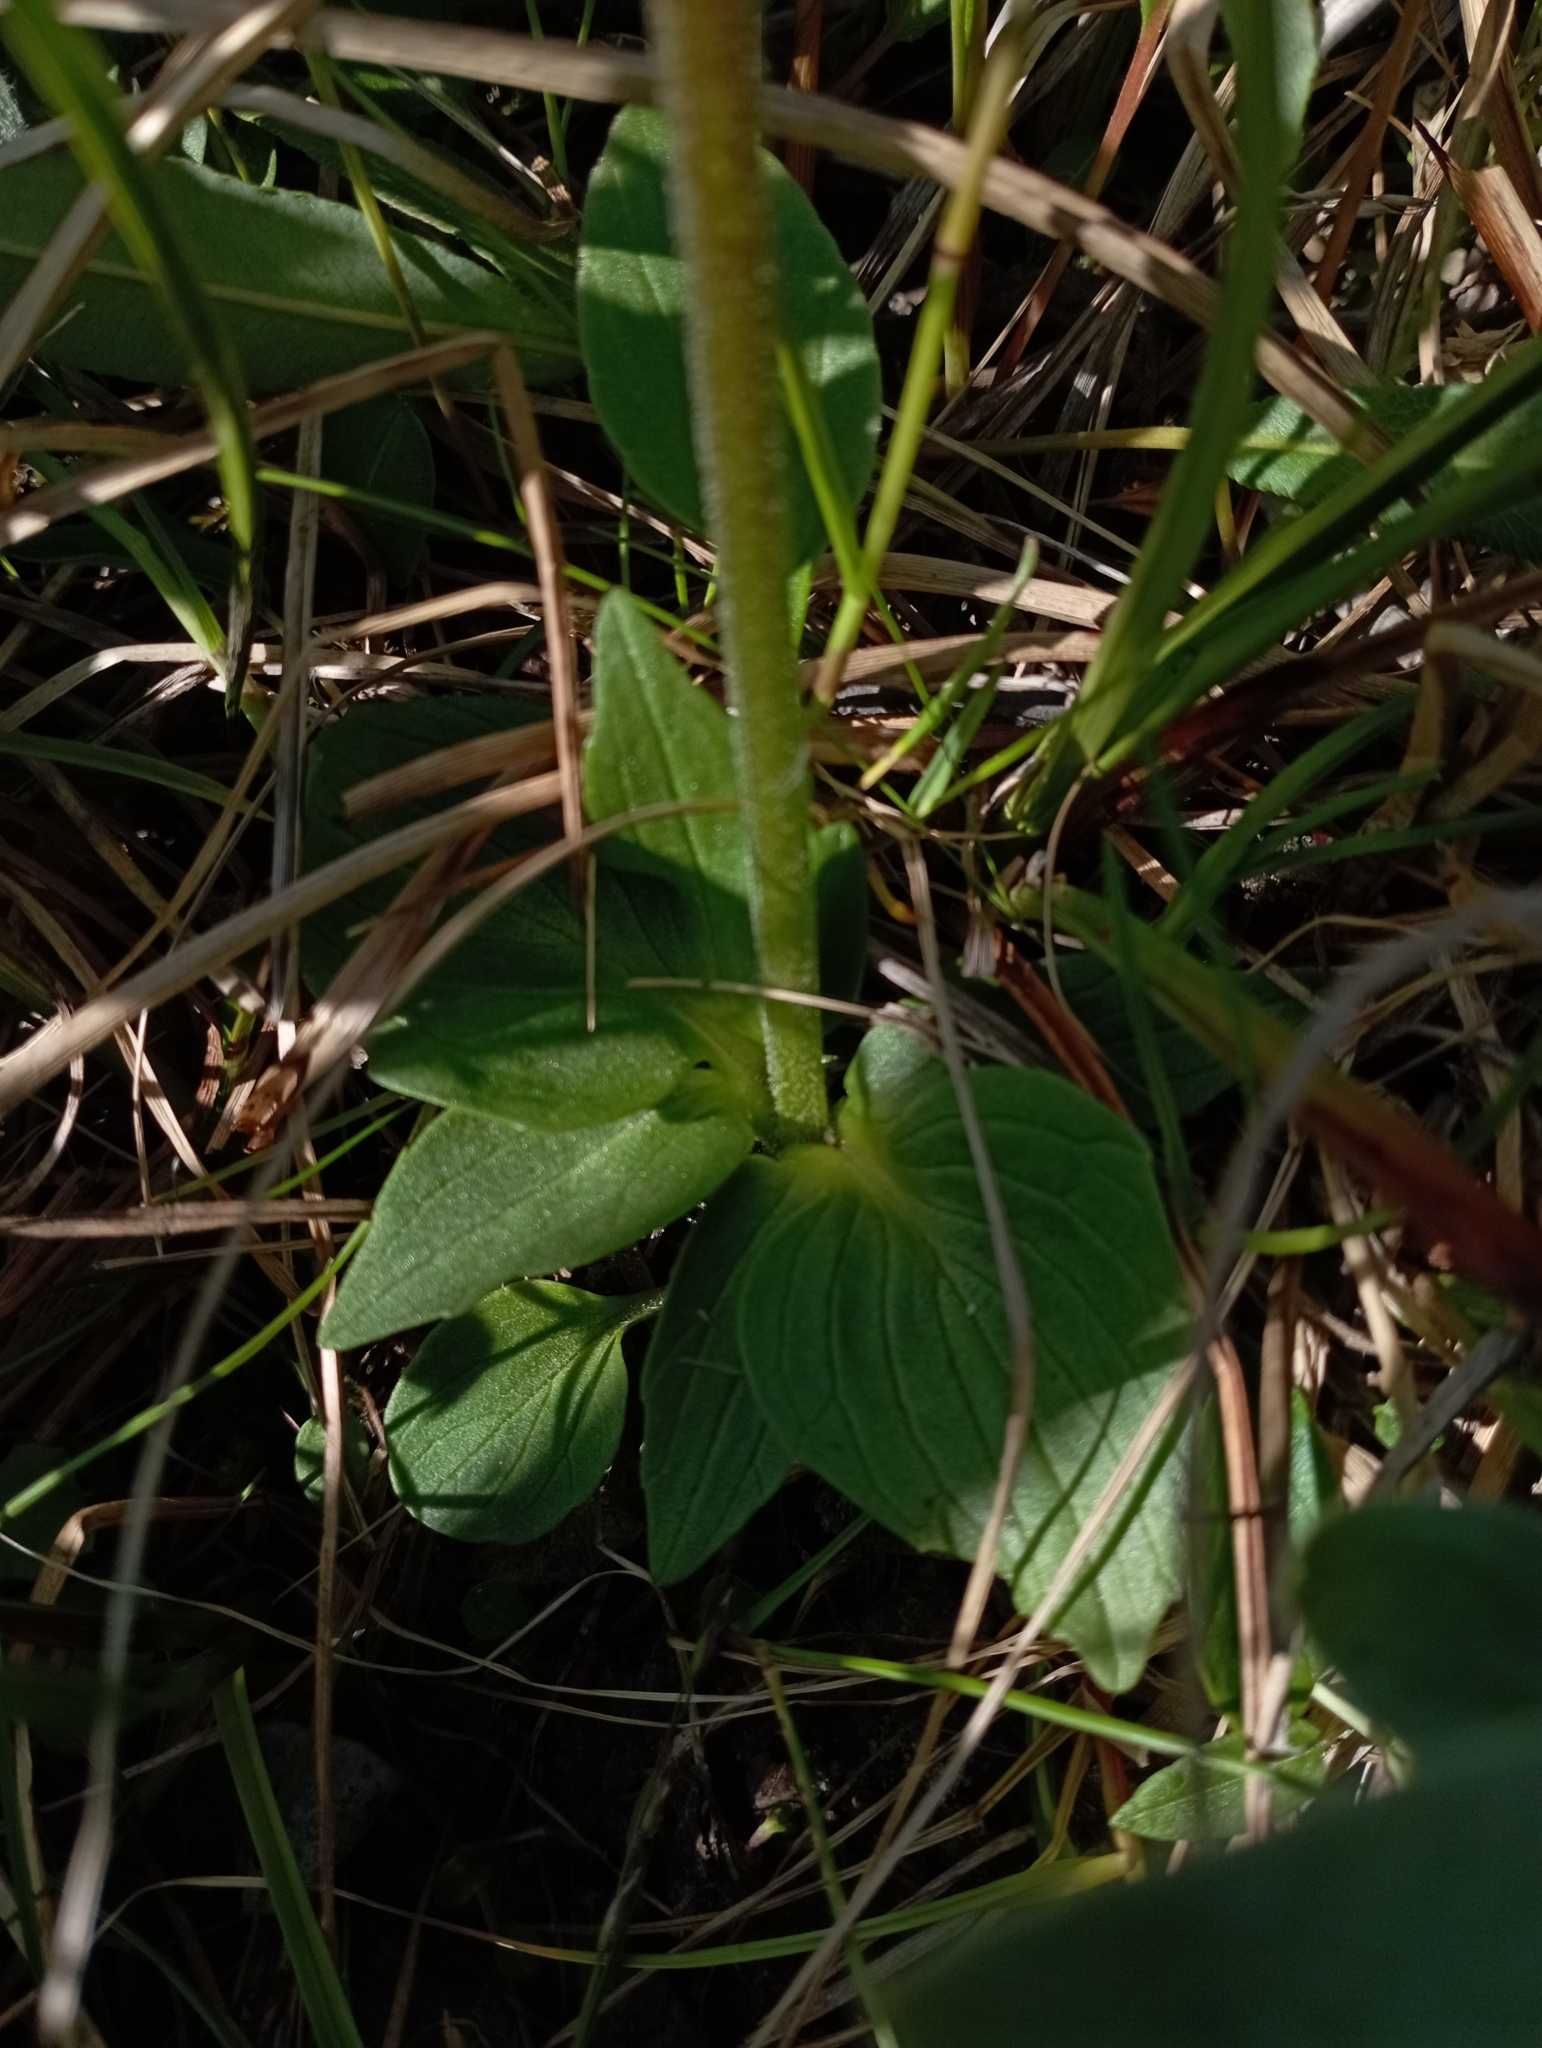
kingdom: Plantae
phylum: Tracheophyta
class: Magnoliopsida
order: Dipsacales
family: Caprifoliaceae
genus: Valeriana
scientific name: Valeriana capitata
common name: Capitate valerian
